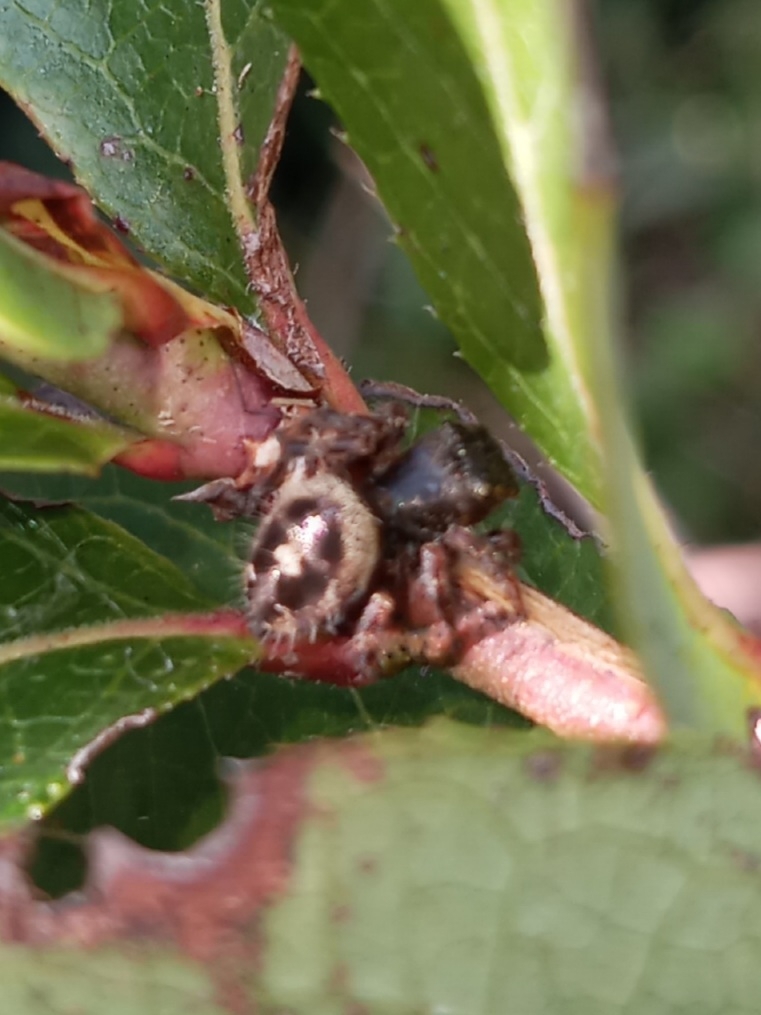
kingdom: Animalia
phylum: Arthropoda
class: Arachnida
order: Araneae
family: Salticidae
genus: Phidippus
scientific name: Phidippus audax
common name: Bold jumper
